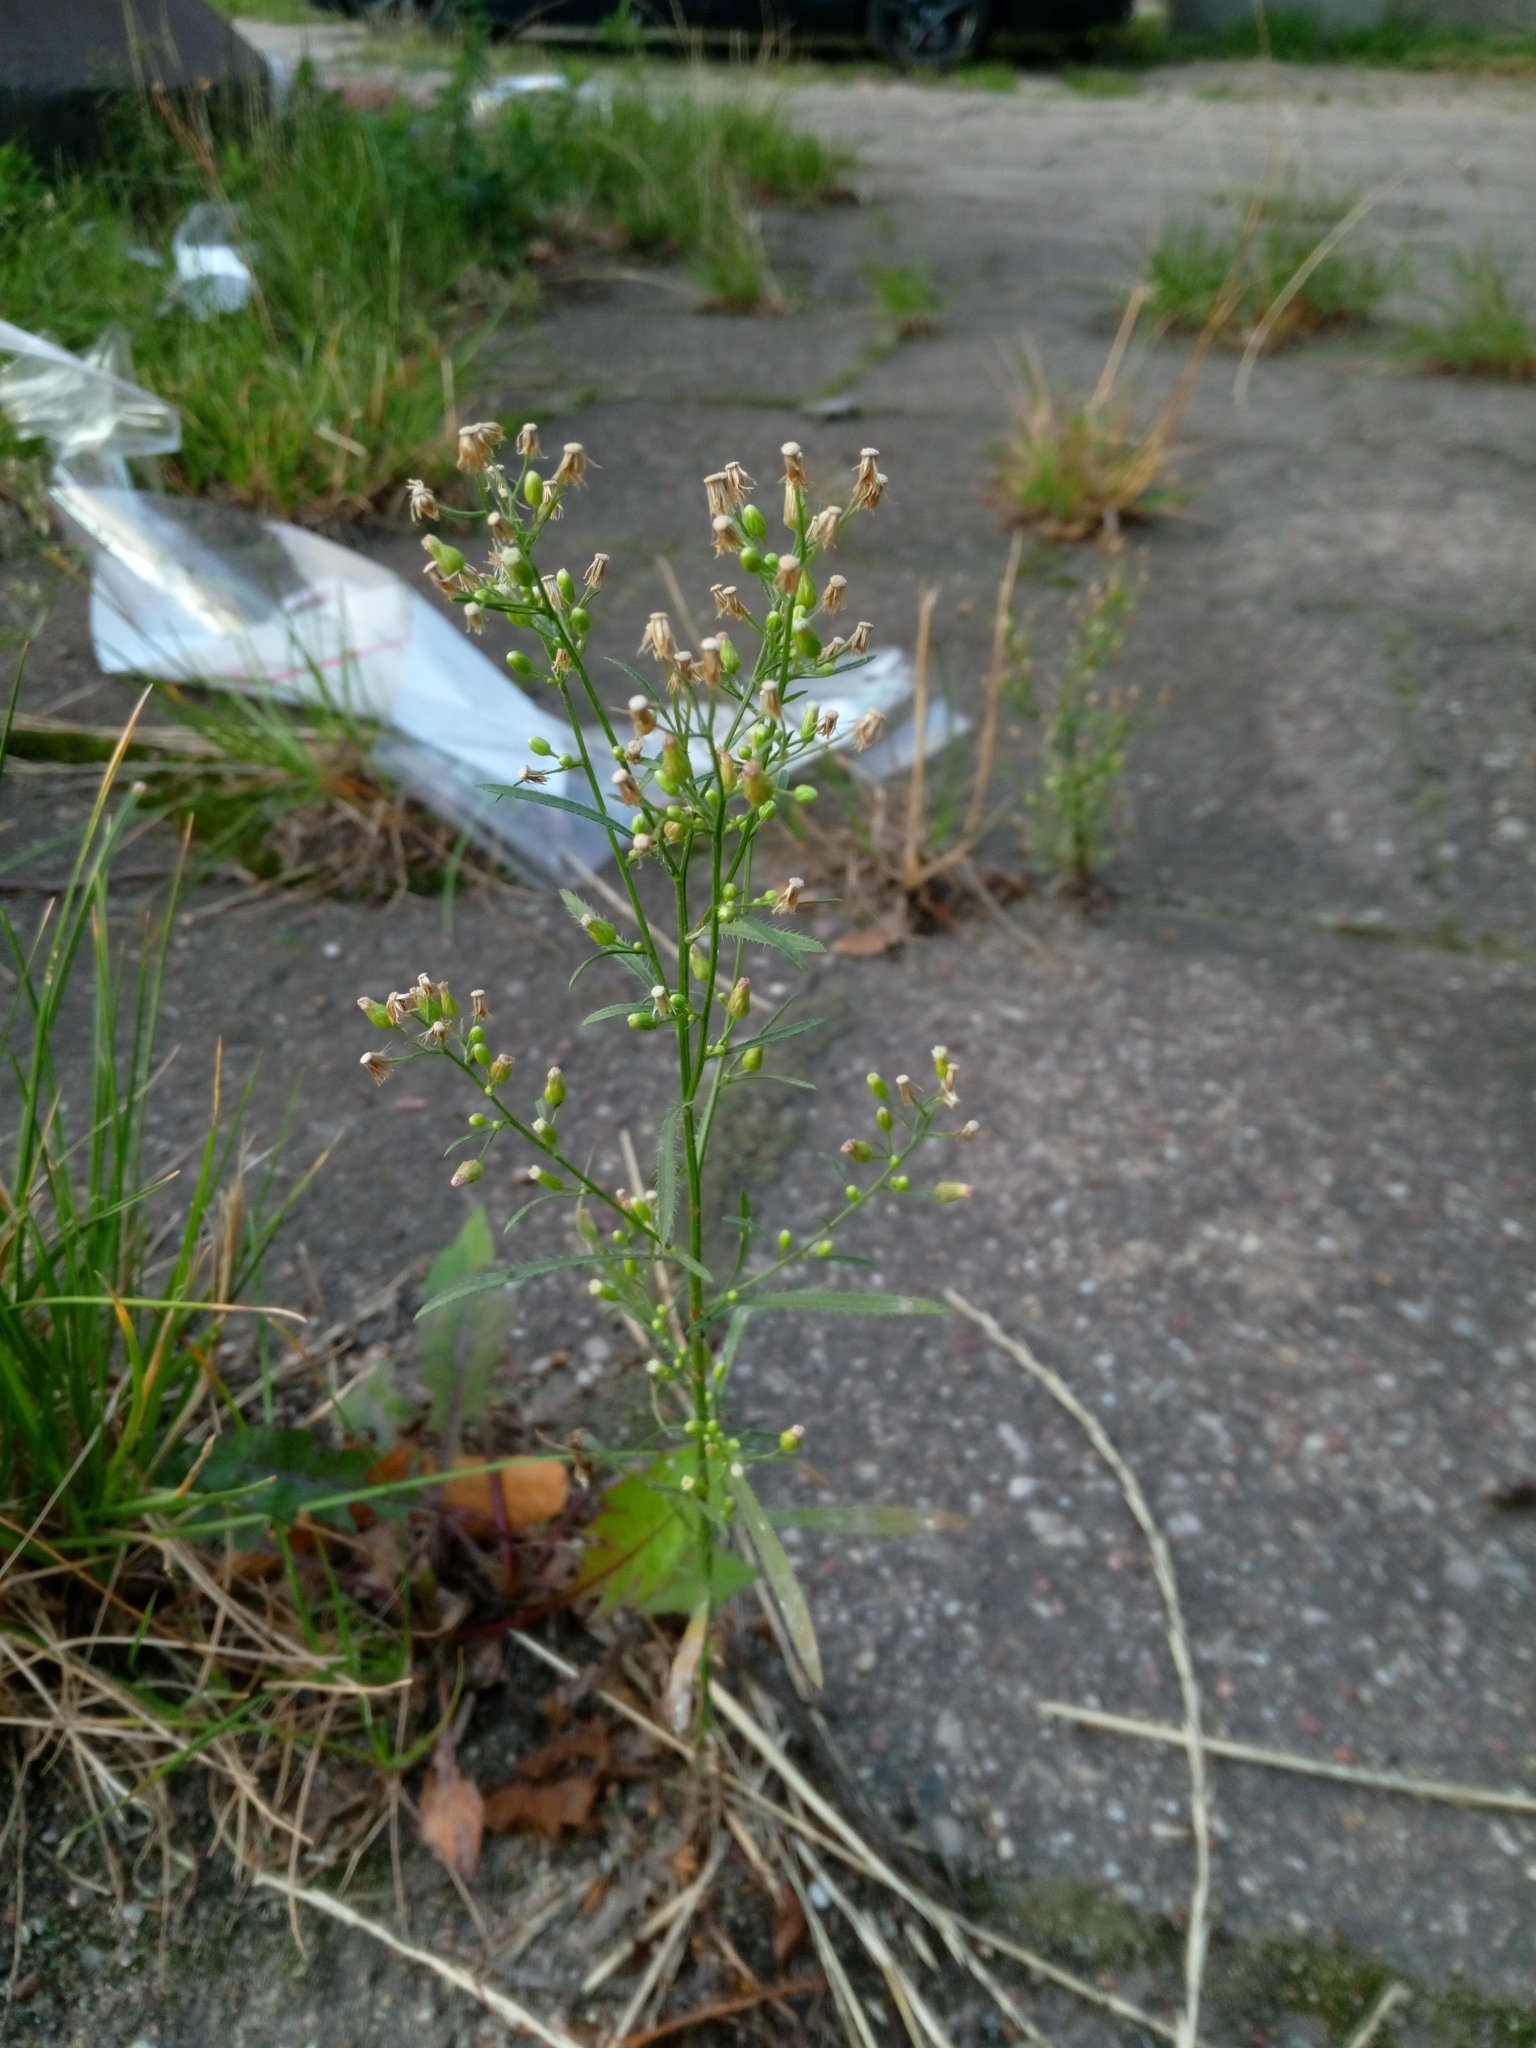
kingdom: Plantae
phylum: Tracheophyta
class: Magnoliopsida
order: Asterales
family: Asteraceae
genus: Erigeron
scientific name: Erigeron canadensis
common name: Canadian fleabane
